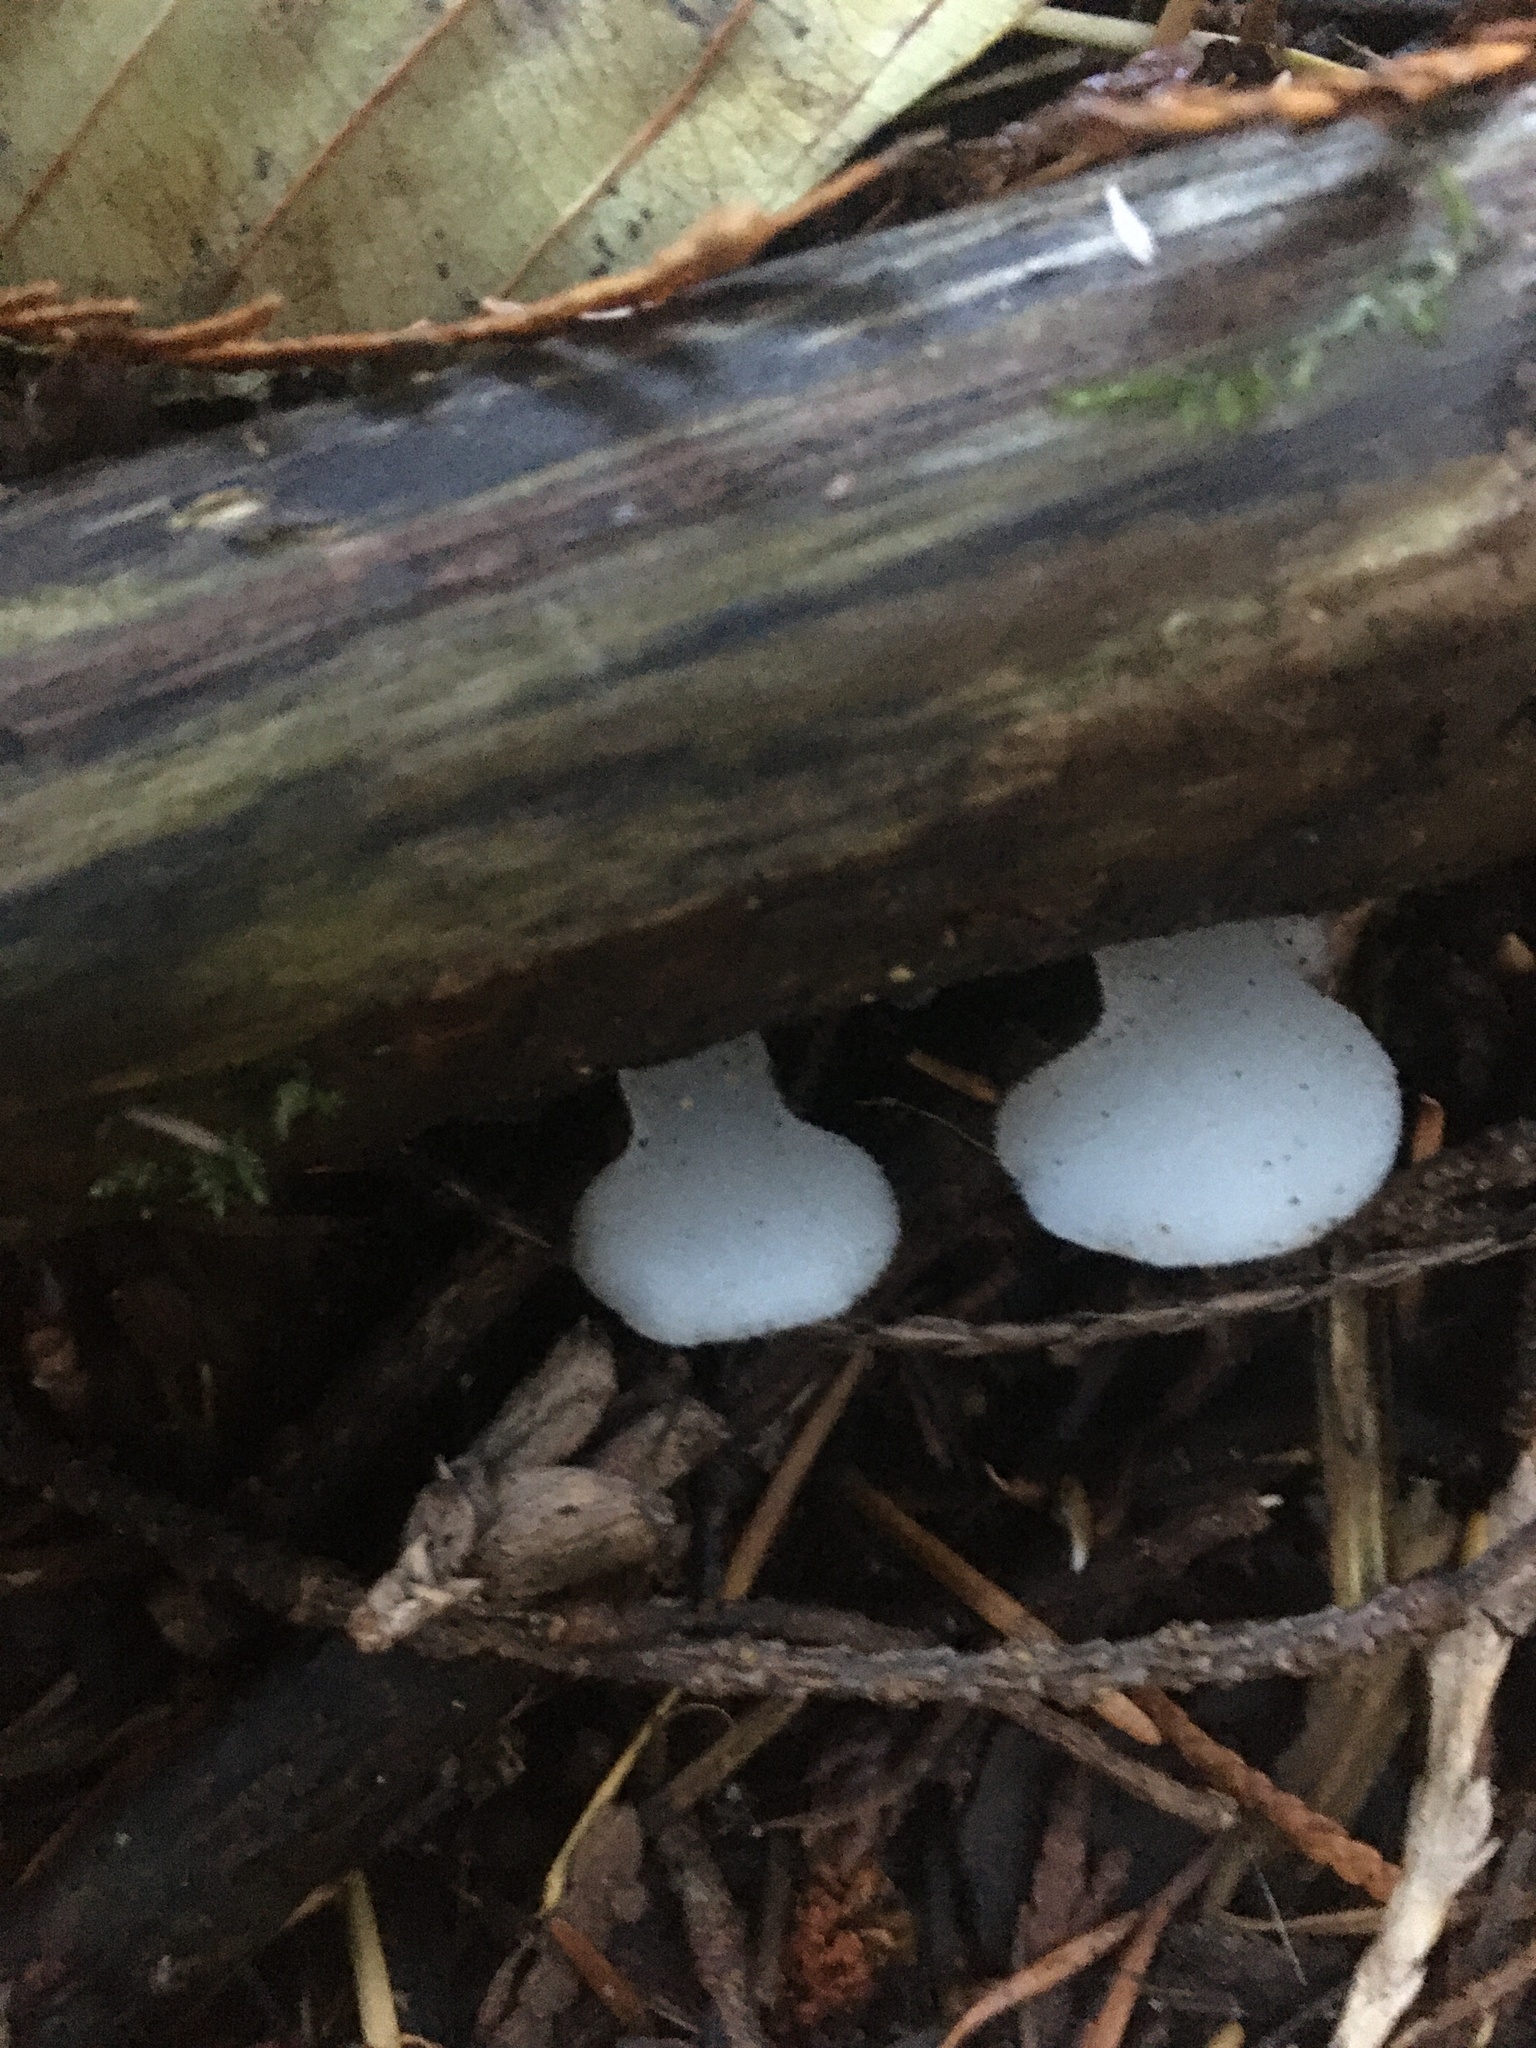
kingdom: Fungi
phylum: Basidiomycota
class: Agaricomycetes
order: Auriculariales
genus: Pseudohydnum
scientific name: Pseudohydnum gelatinosum
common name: Jelly tongue
